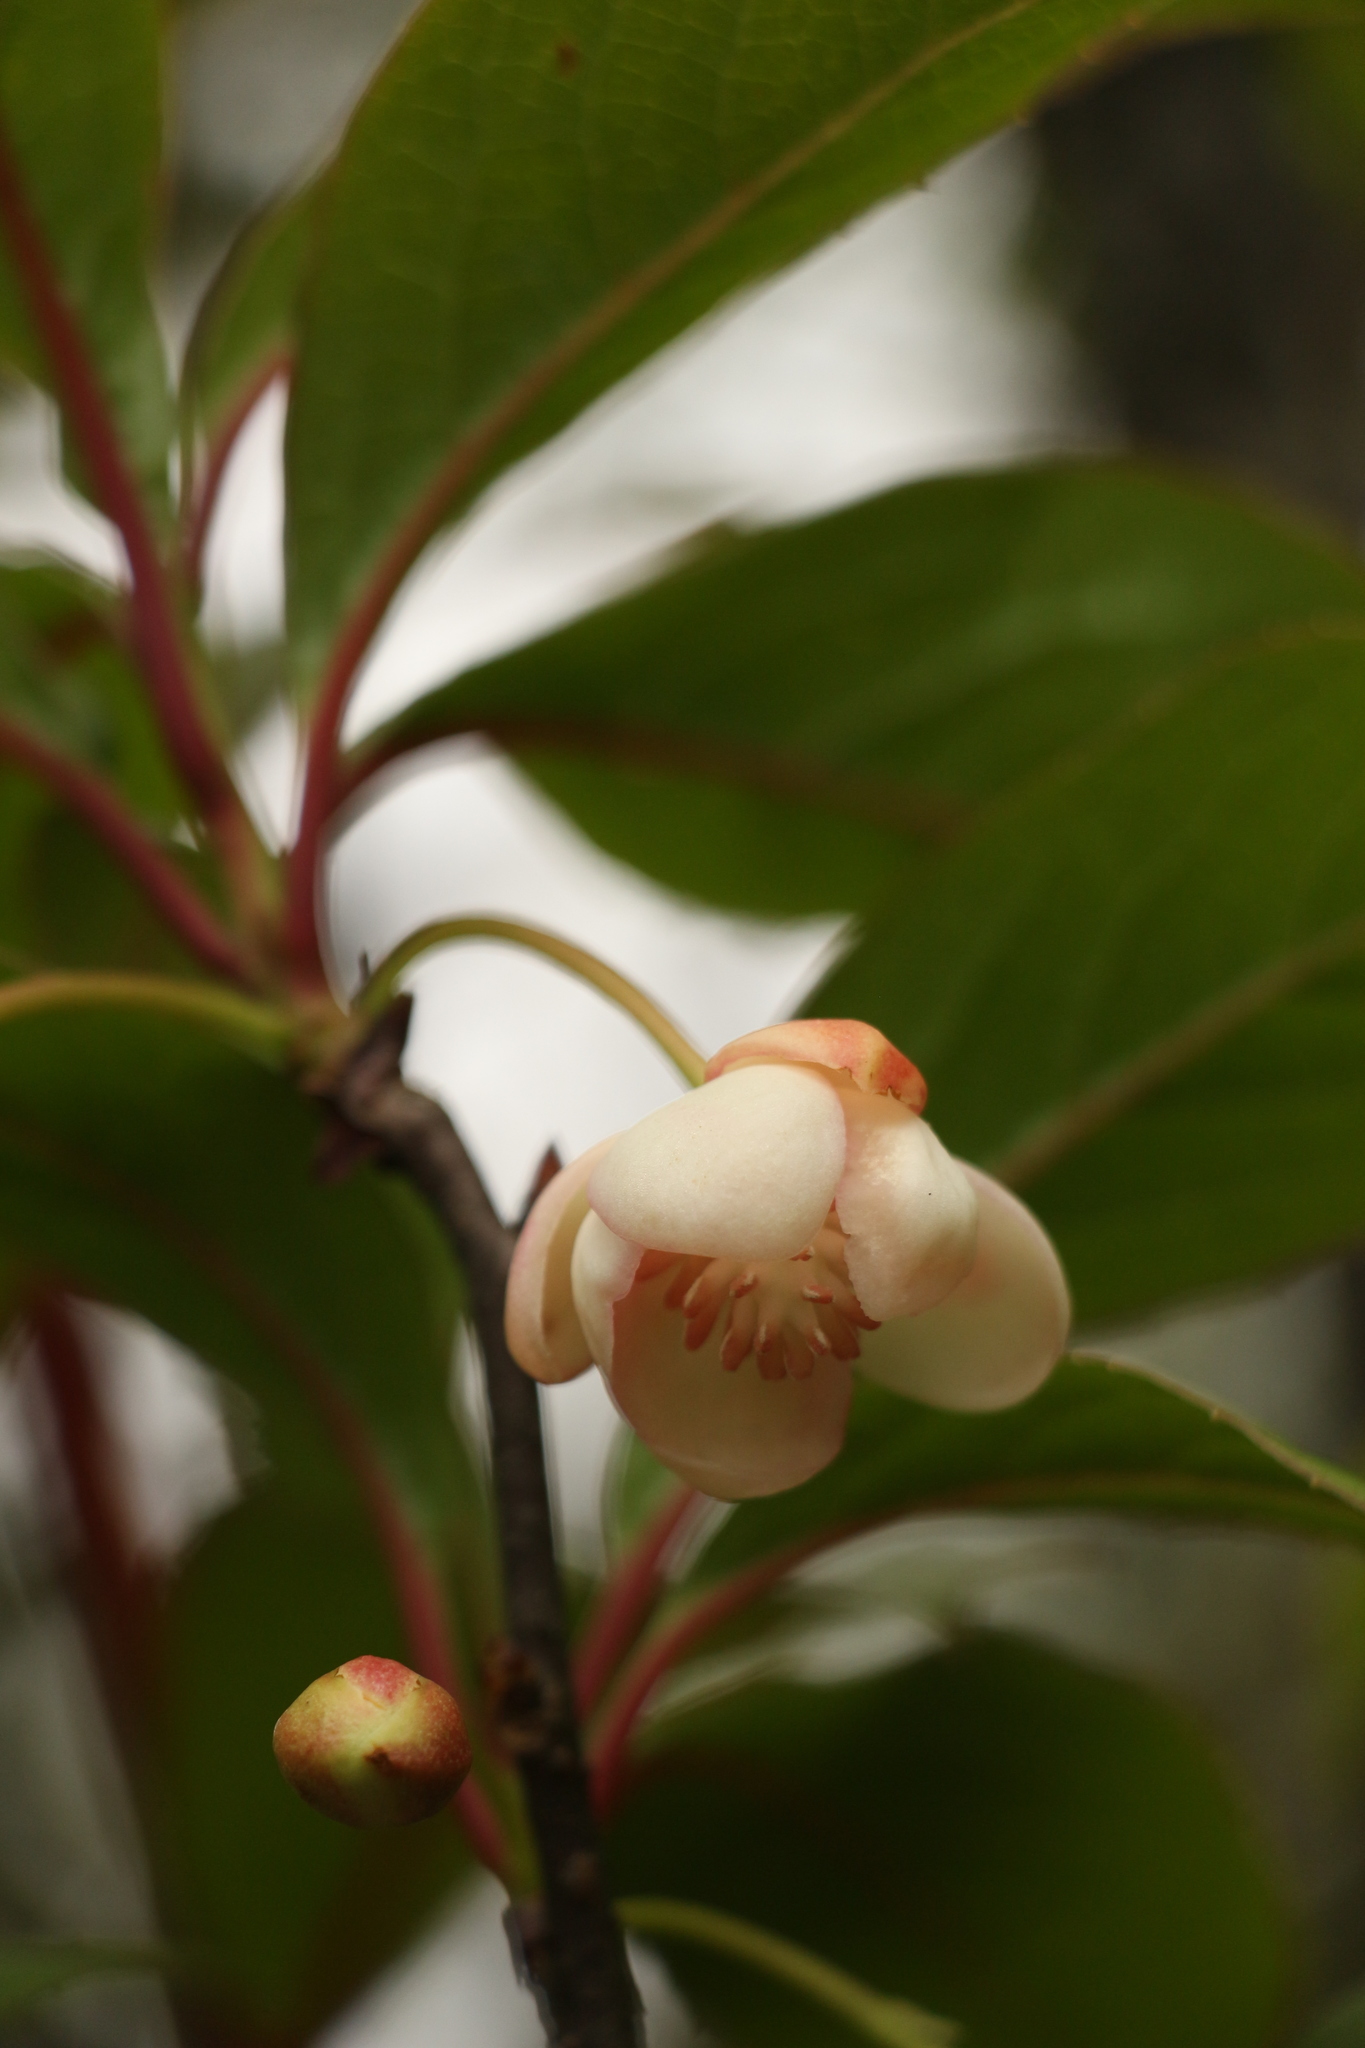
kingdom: Plantae
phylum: Tracheophyta
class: Magnoliopsida
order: Austrobaileyales
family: Schisandraceae
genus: Schisandra
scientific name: Schisandra grandiflora
